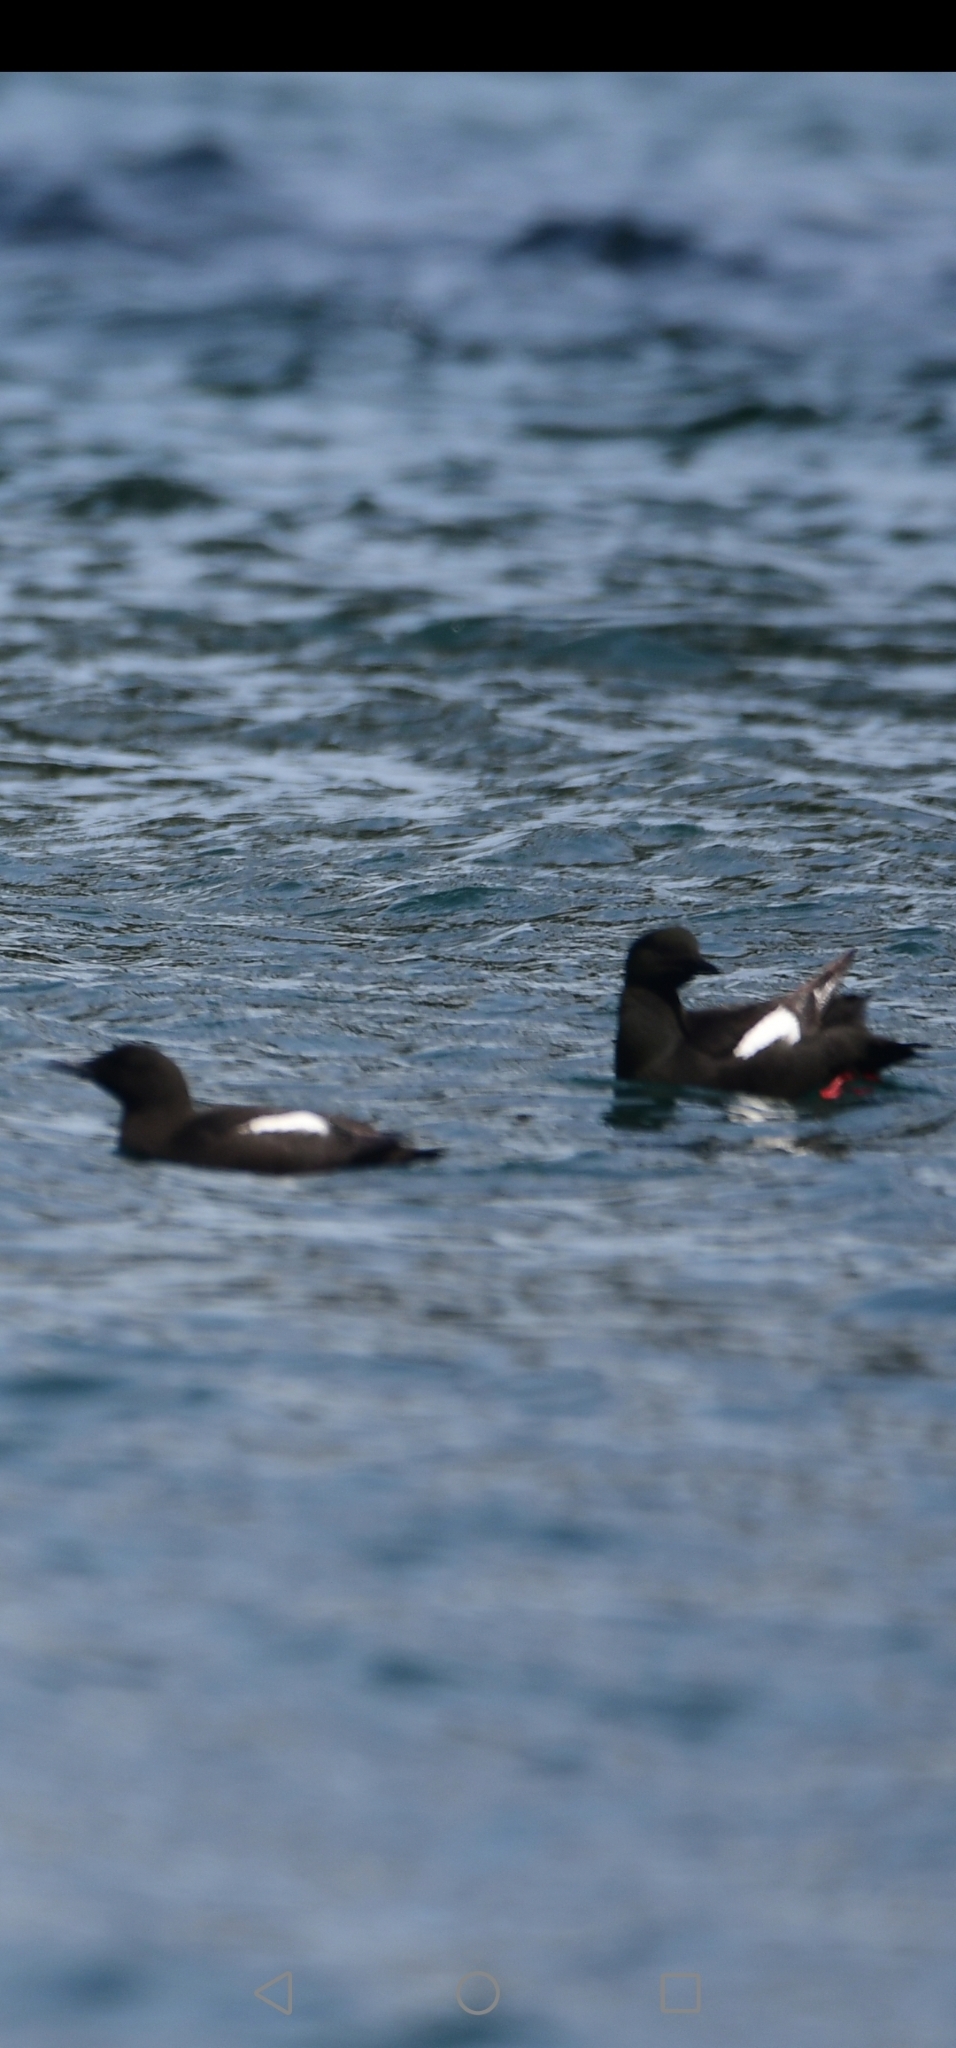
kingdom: Animalia
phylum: Chordata
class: Aves
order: Charadriiformes
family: Alcidae
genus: Cepphus
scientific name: Cepphus grylle
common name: Black guillemot
